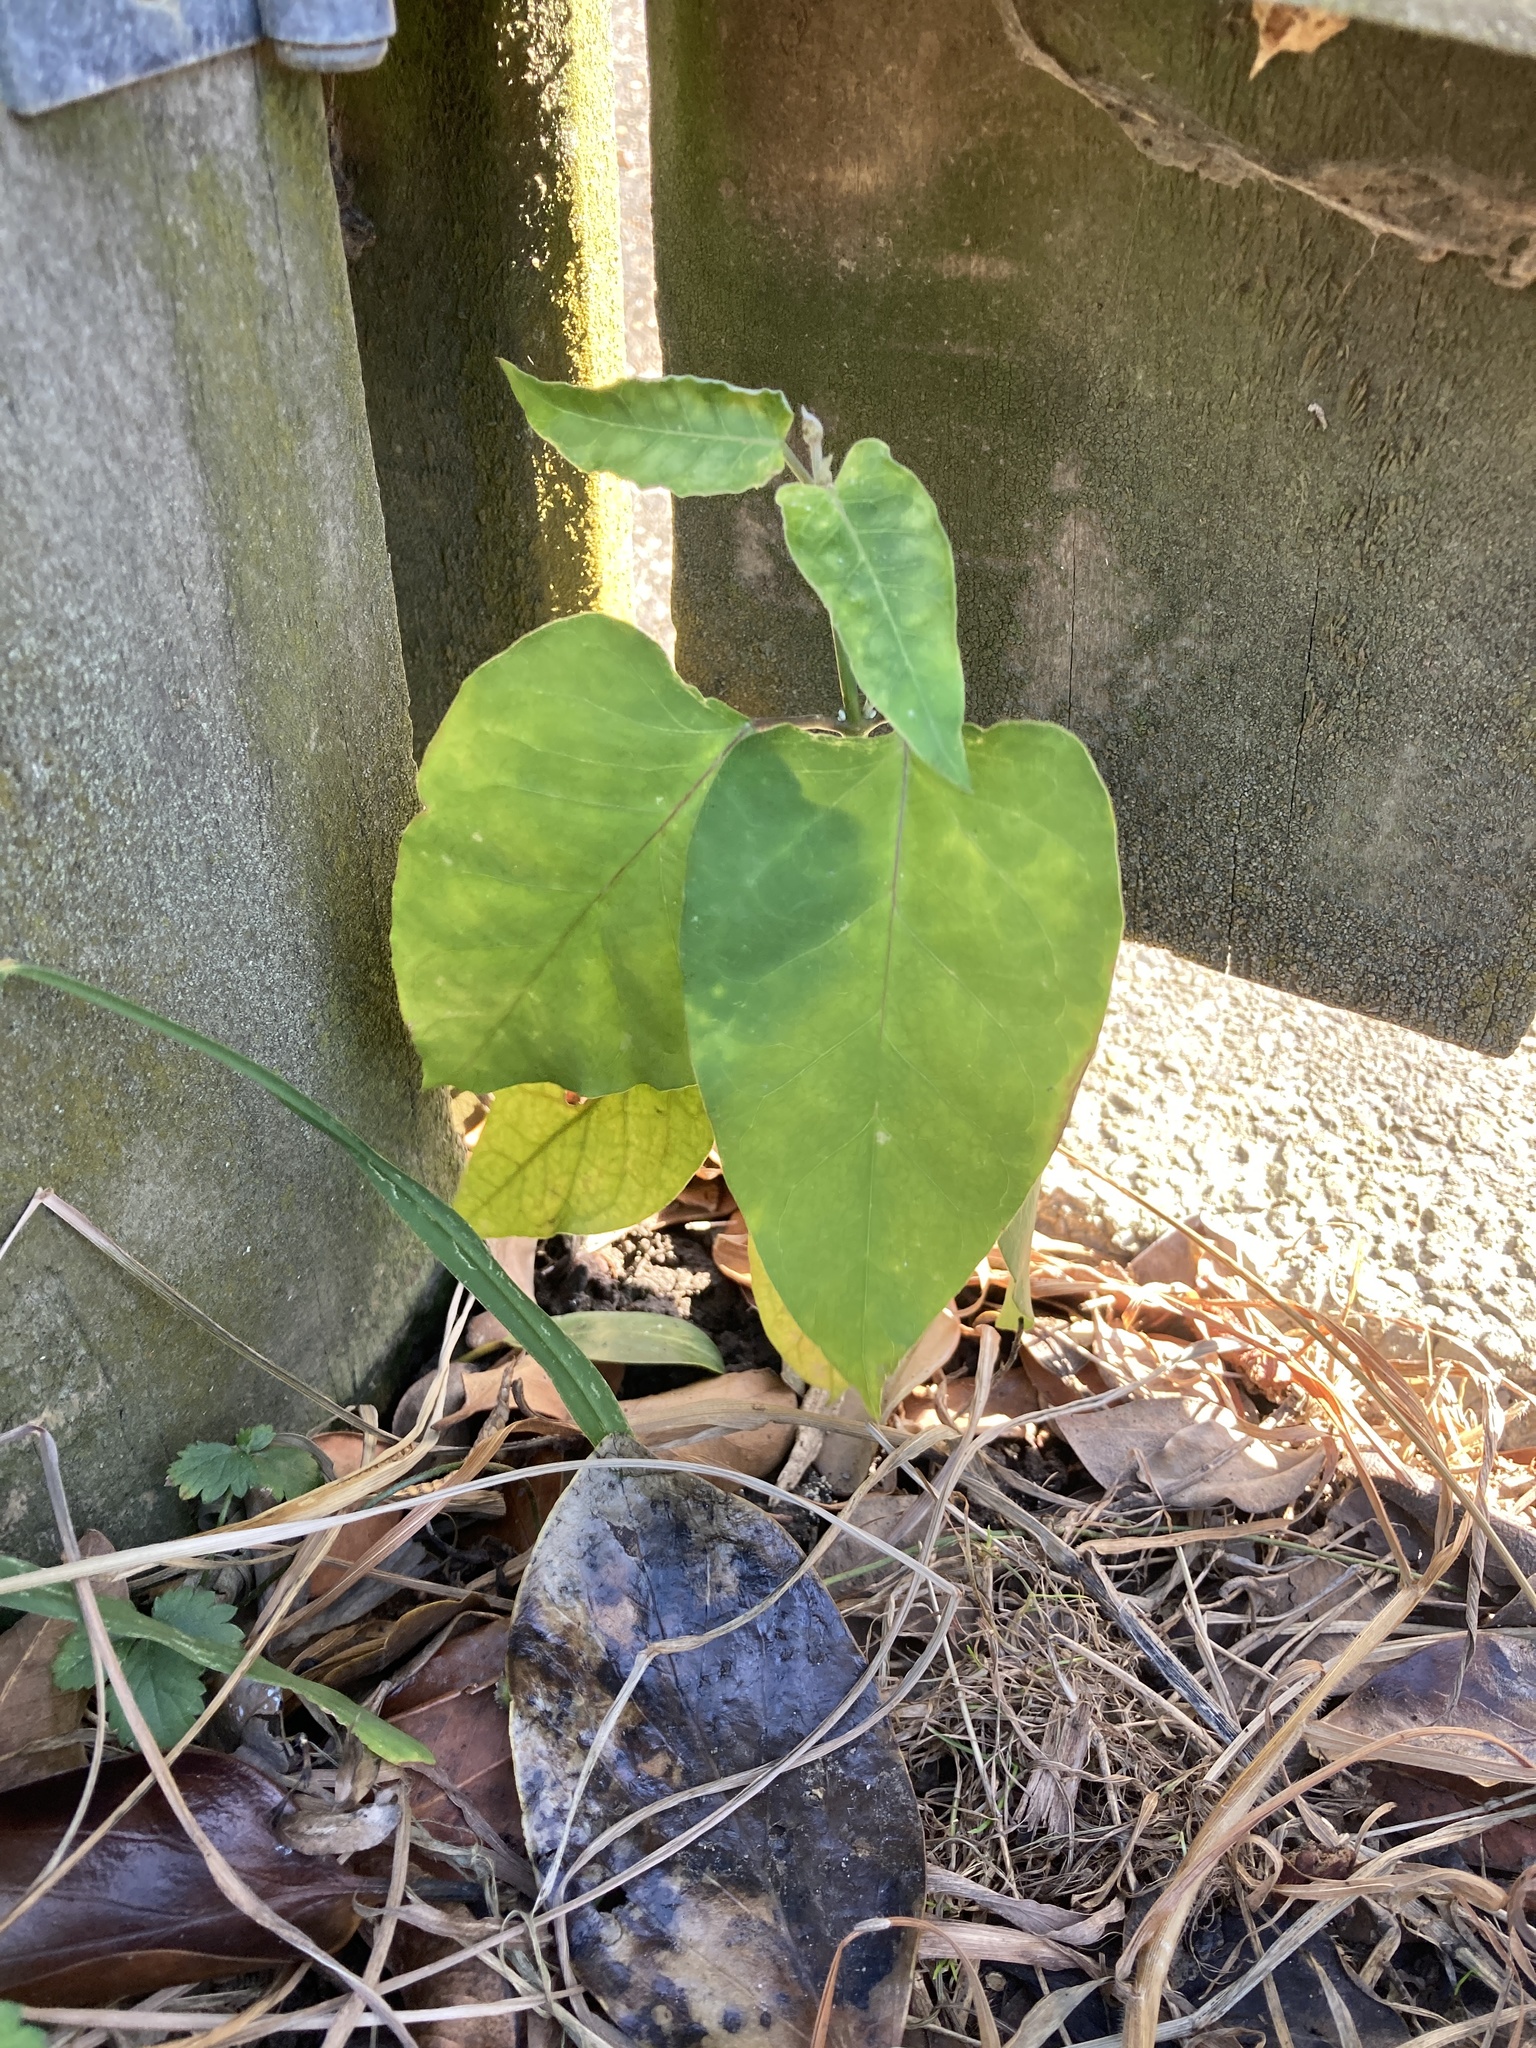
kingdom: Plantae
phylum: Tracheophyta
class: Magnoliopsida
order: Gentianales
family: Apocynaceae
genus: Araujia
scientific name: Araujia sericifera
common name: White bladderflower
